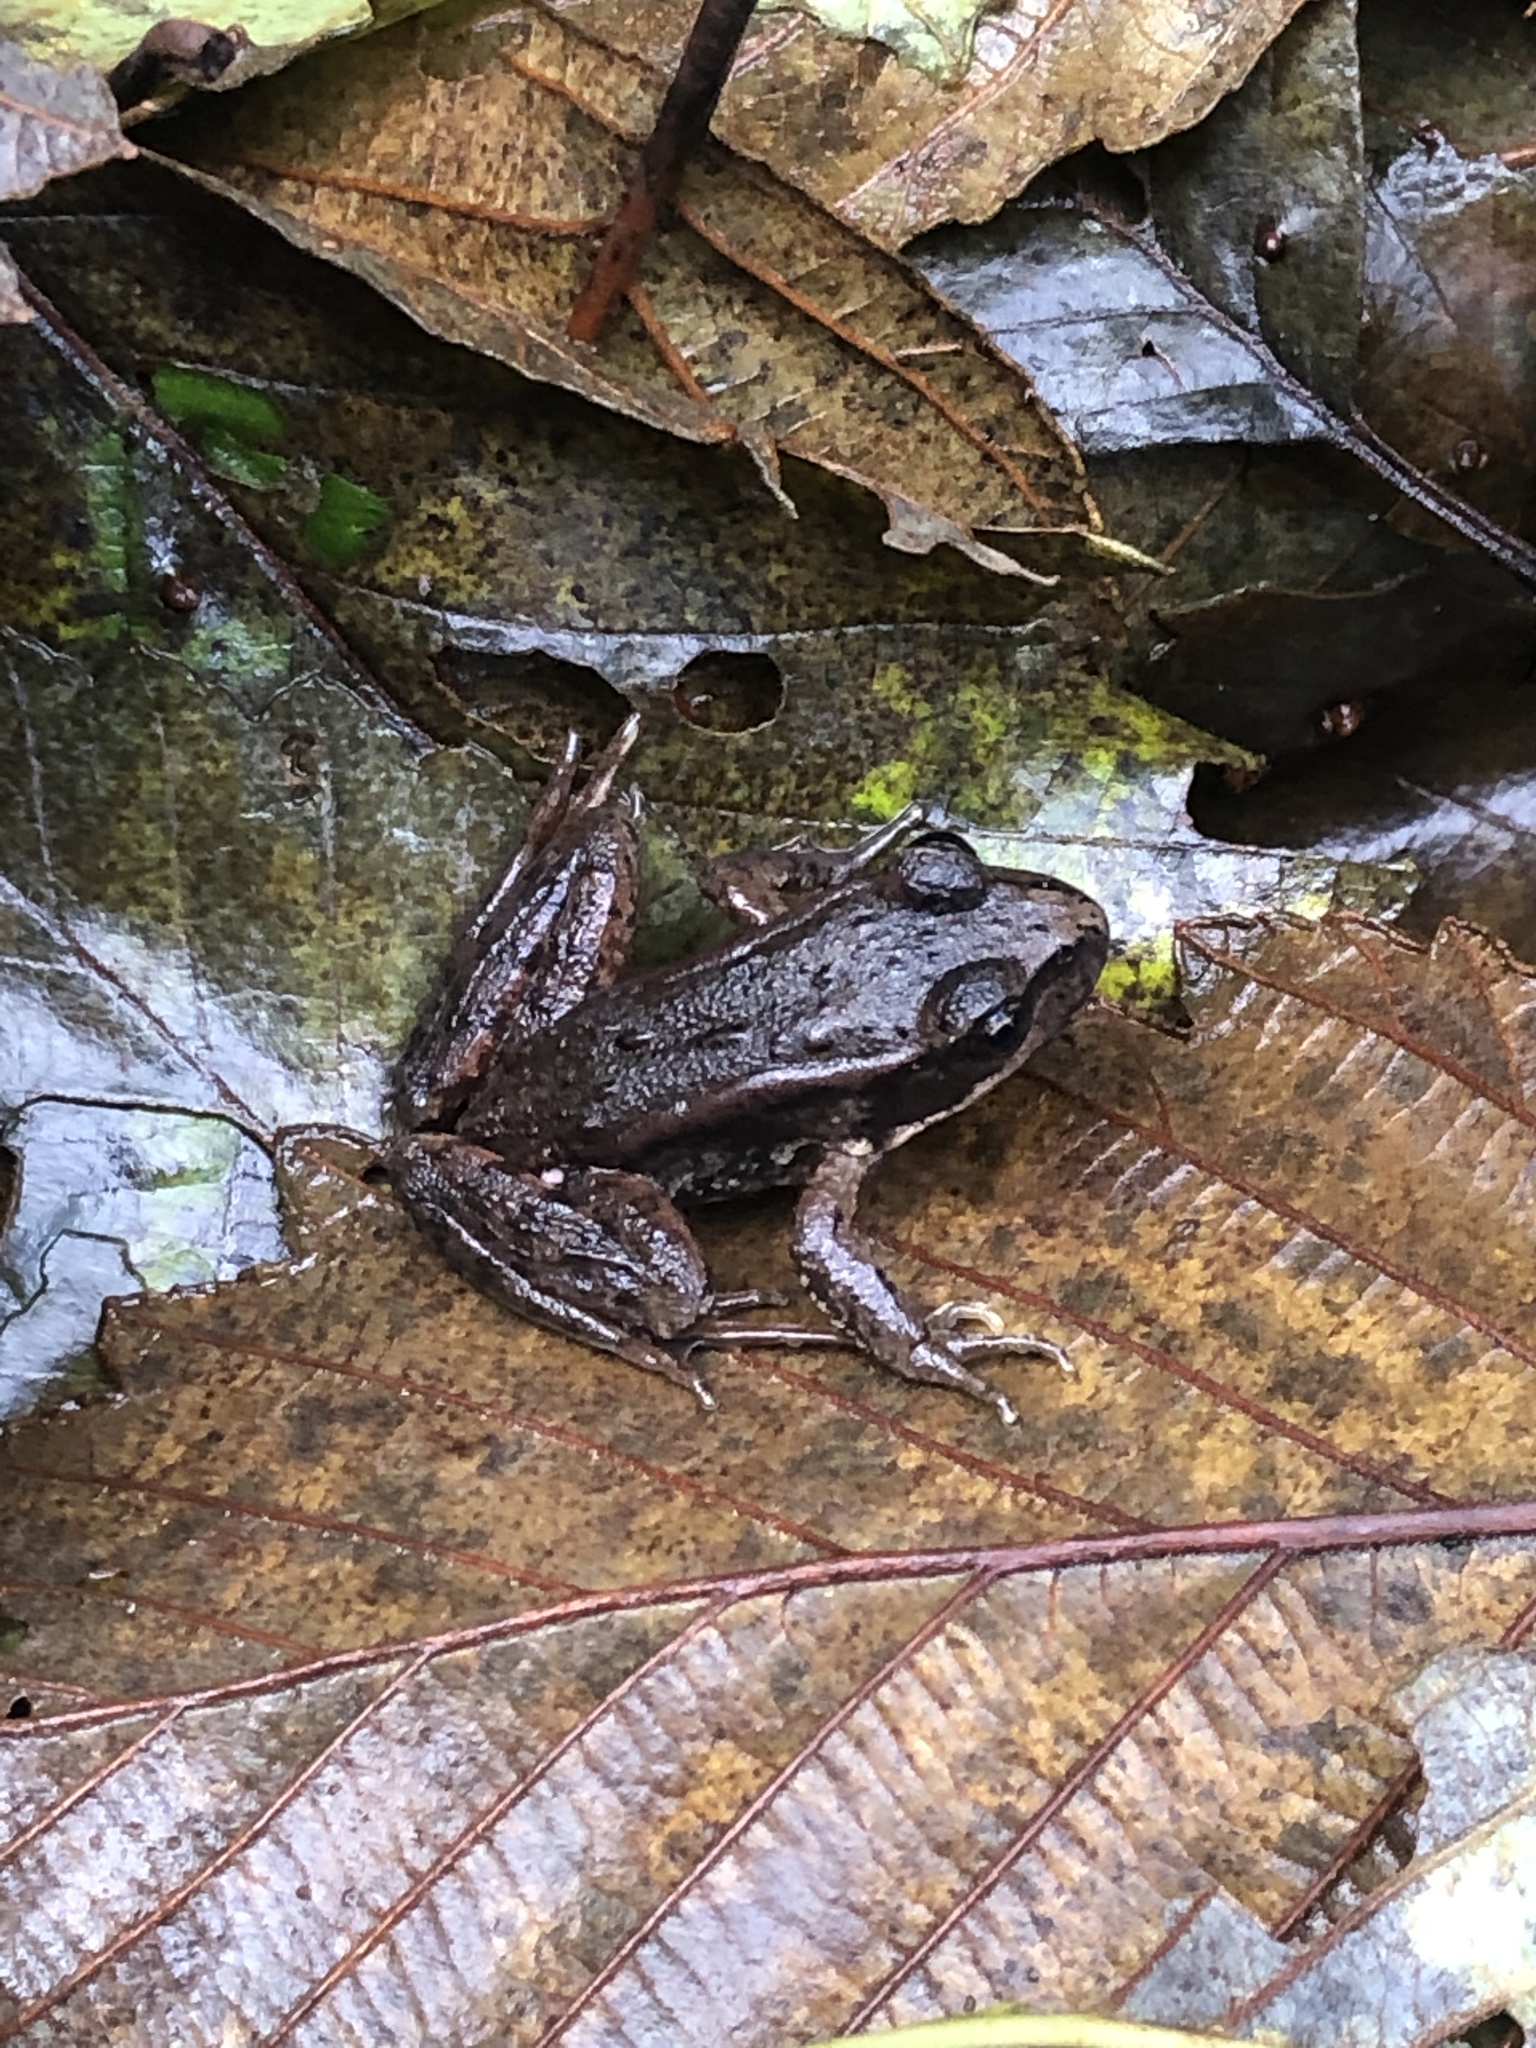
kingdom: Animalia
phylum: Chordata
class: Amphibia
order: Anura
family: Ranidae
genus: Rana
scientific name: Rana aurora
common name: Red-legged frog
